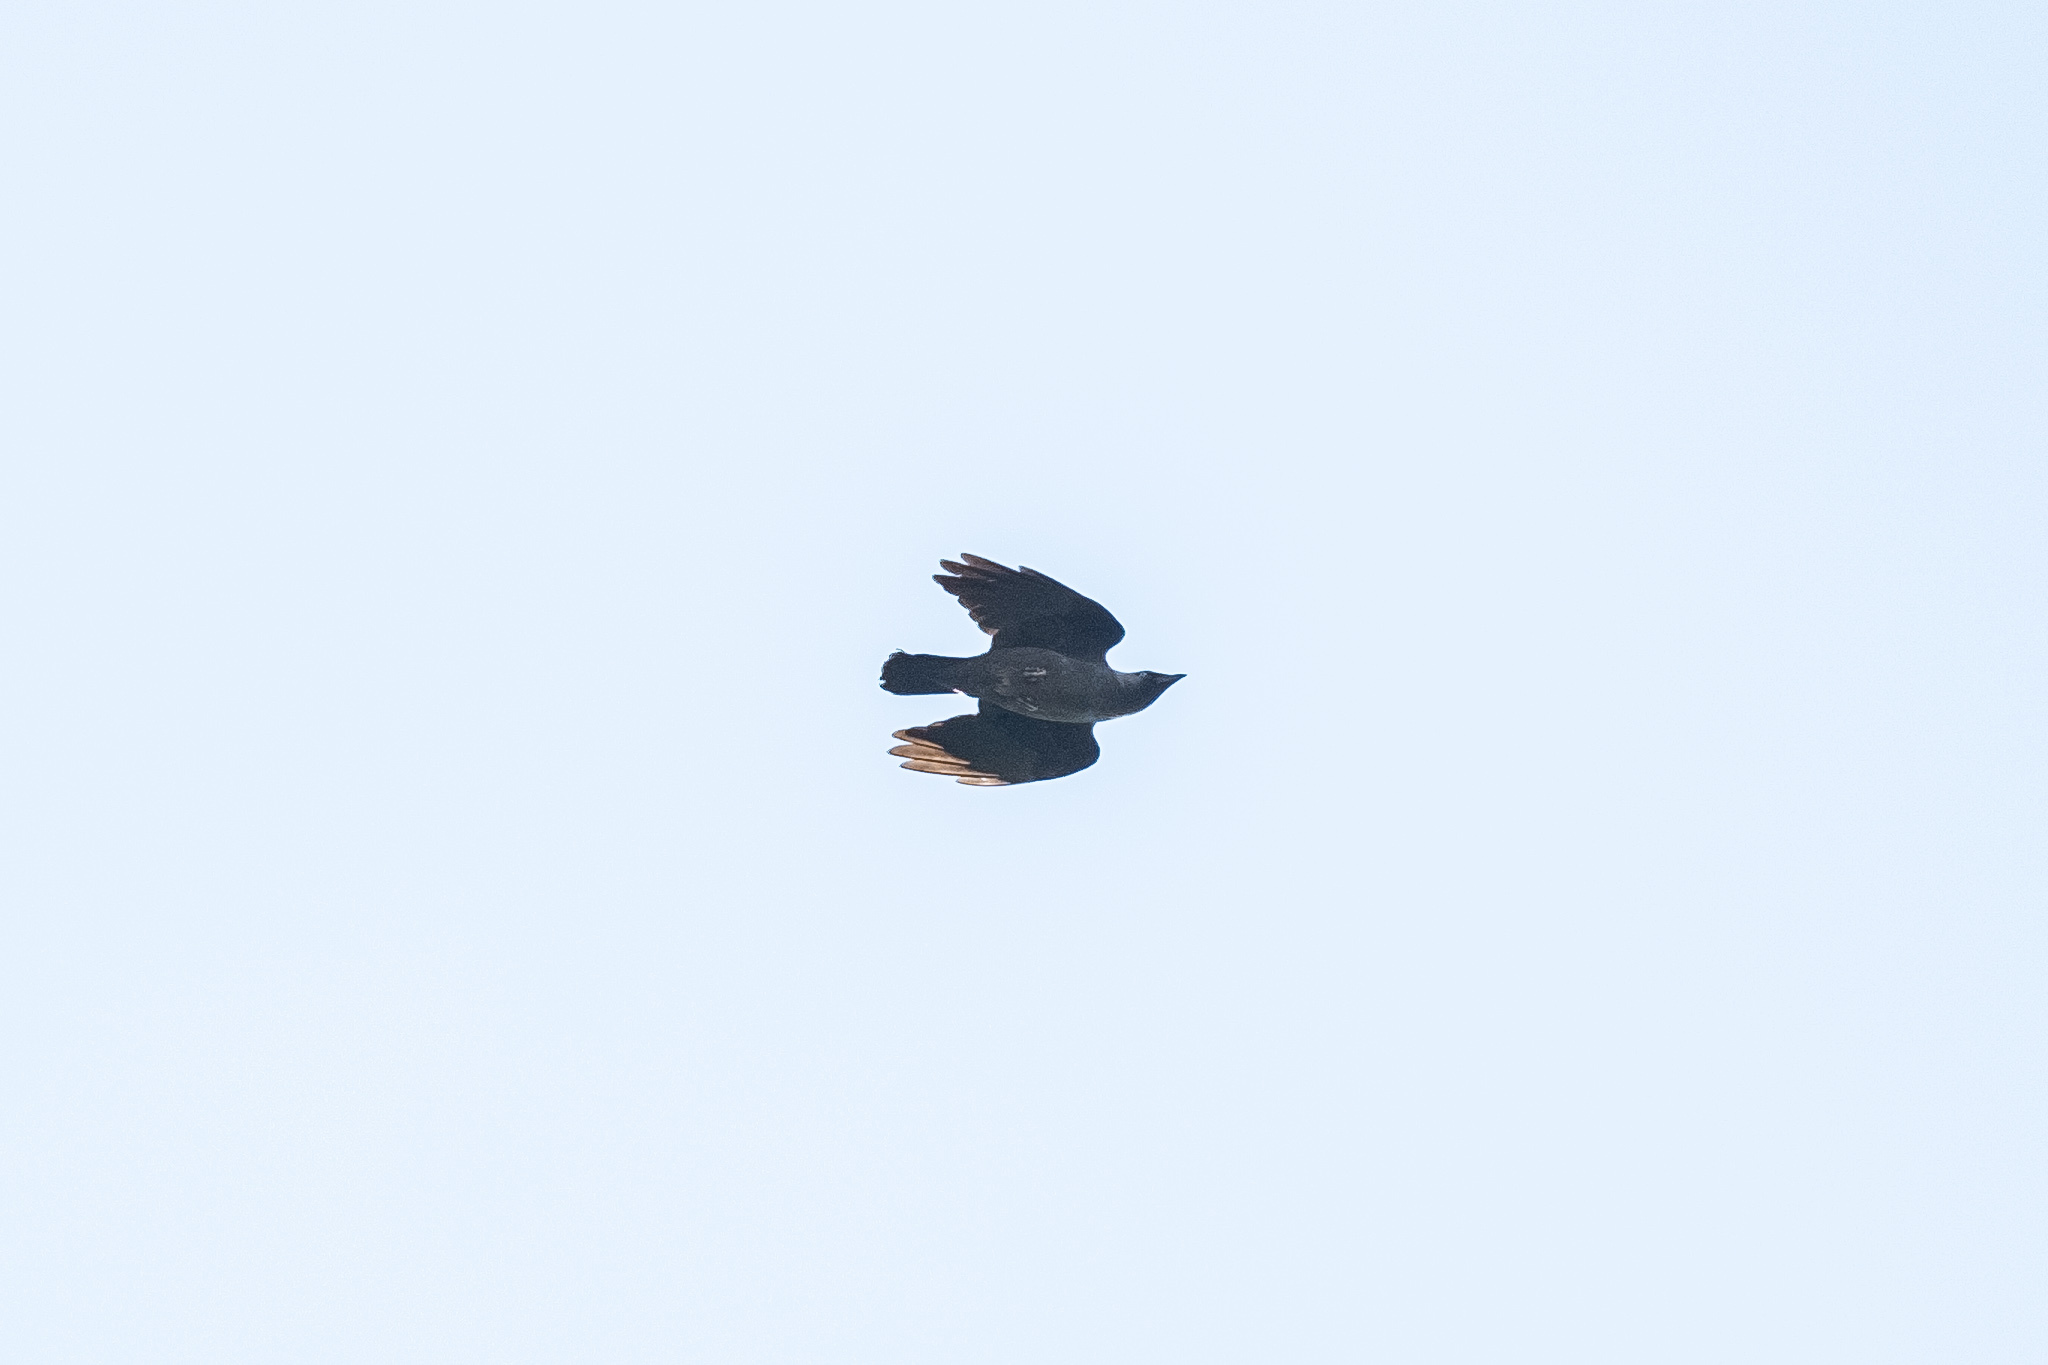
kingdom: Animalia
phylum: Chordata
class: Aves
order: Passeriformes
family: Corvidae
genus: Coloeus
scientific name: Coloeus monedula
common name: Western jackdaw
